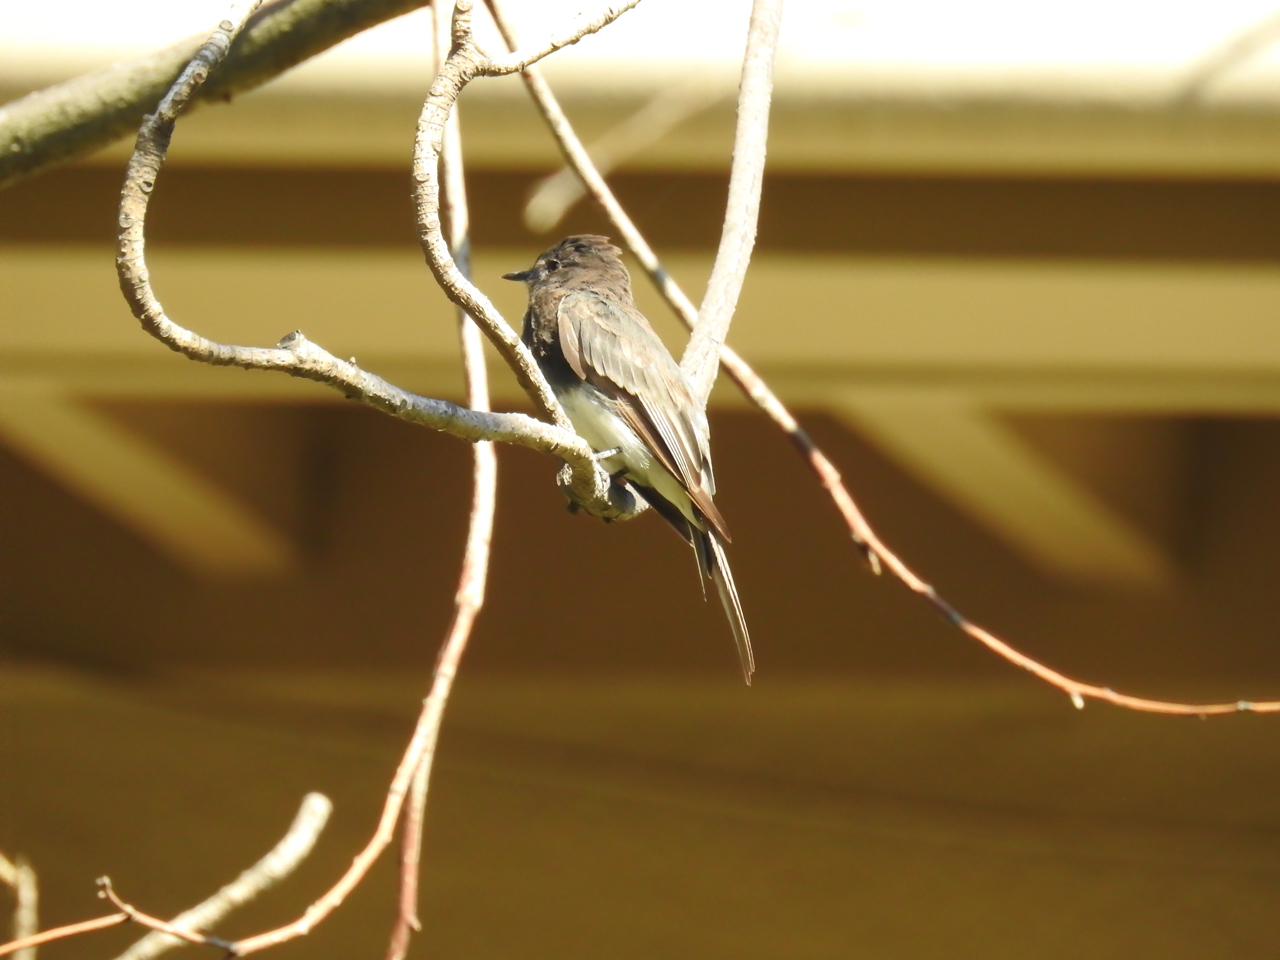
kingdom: Animalia
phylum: Chordata
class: Aves
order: Passeriformes
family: Tyrannidae
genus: Sayornis
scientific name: Sayornis nigricans
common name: Black phoebe
